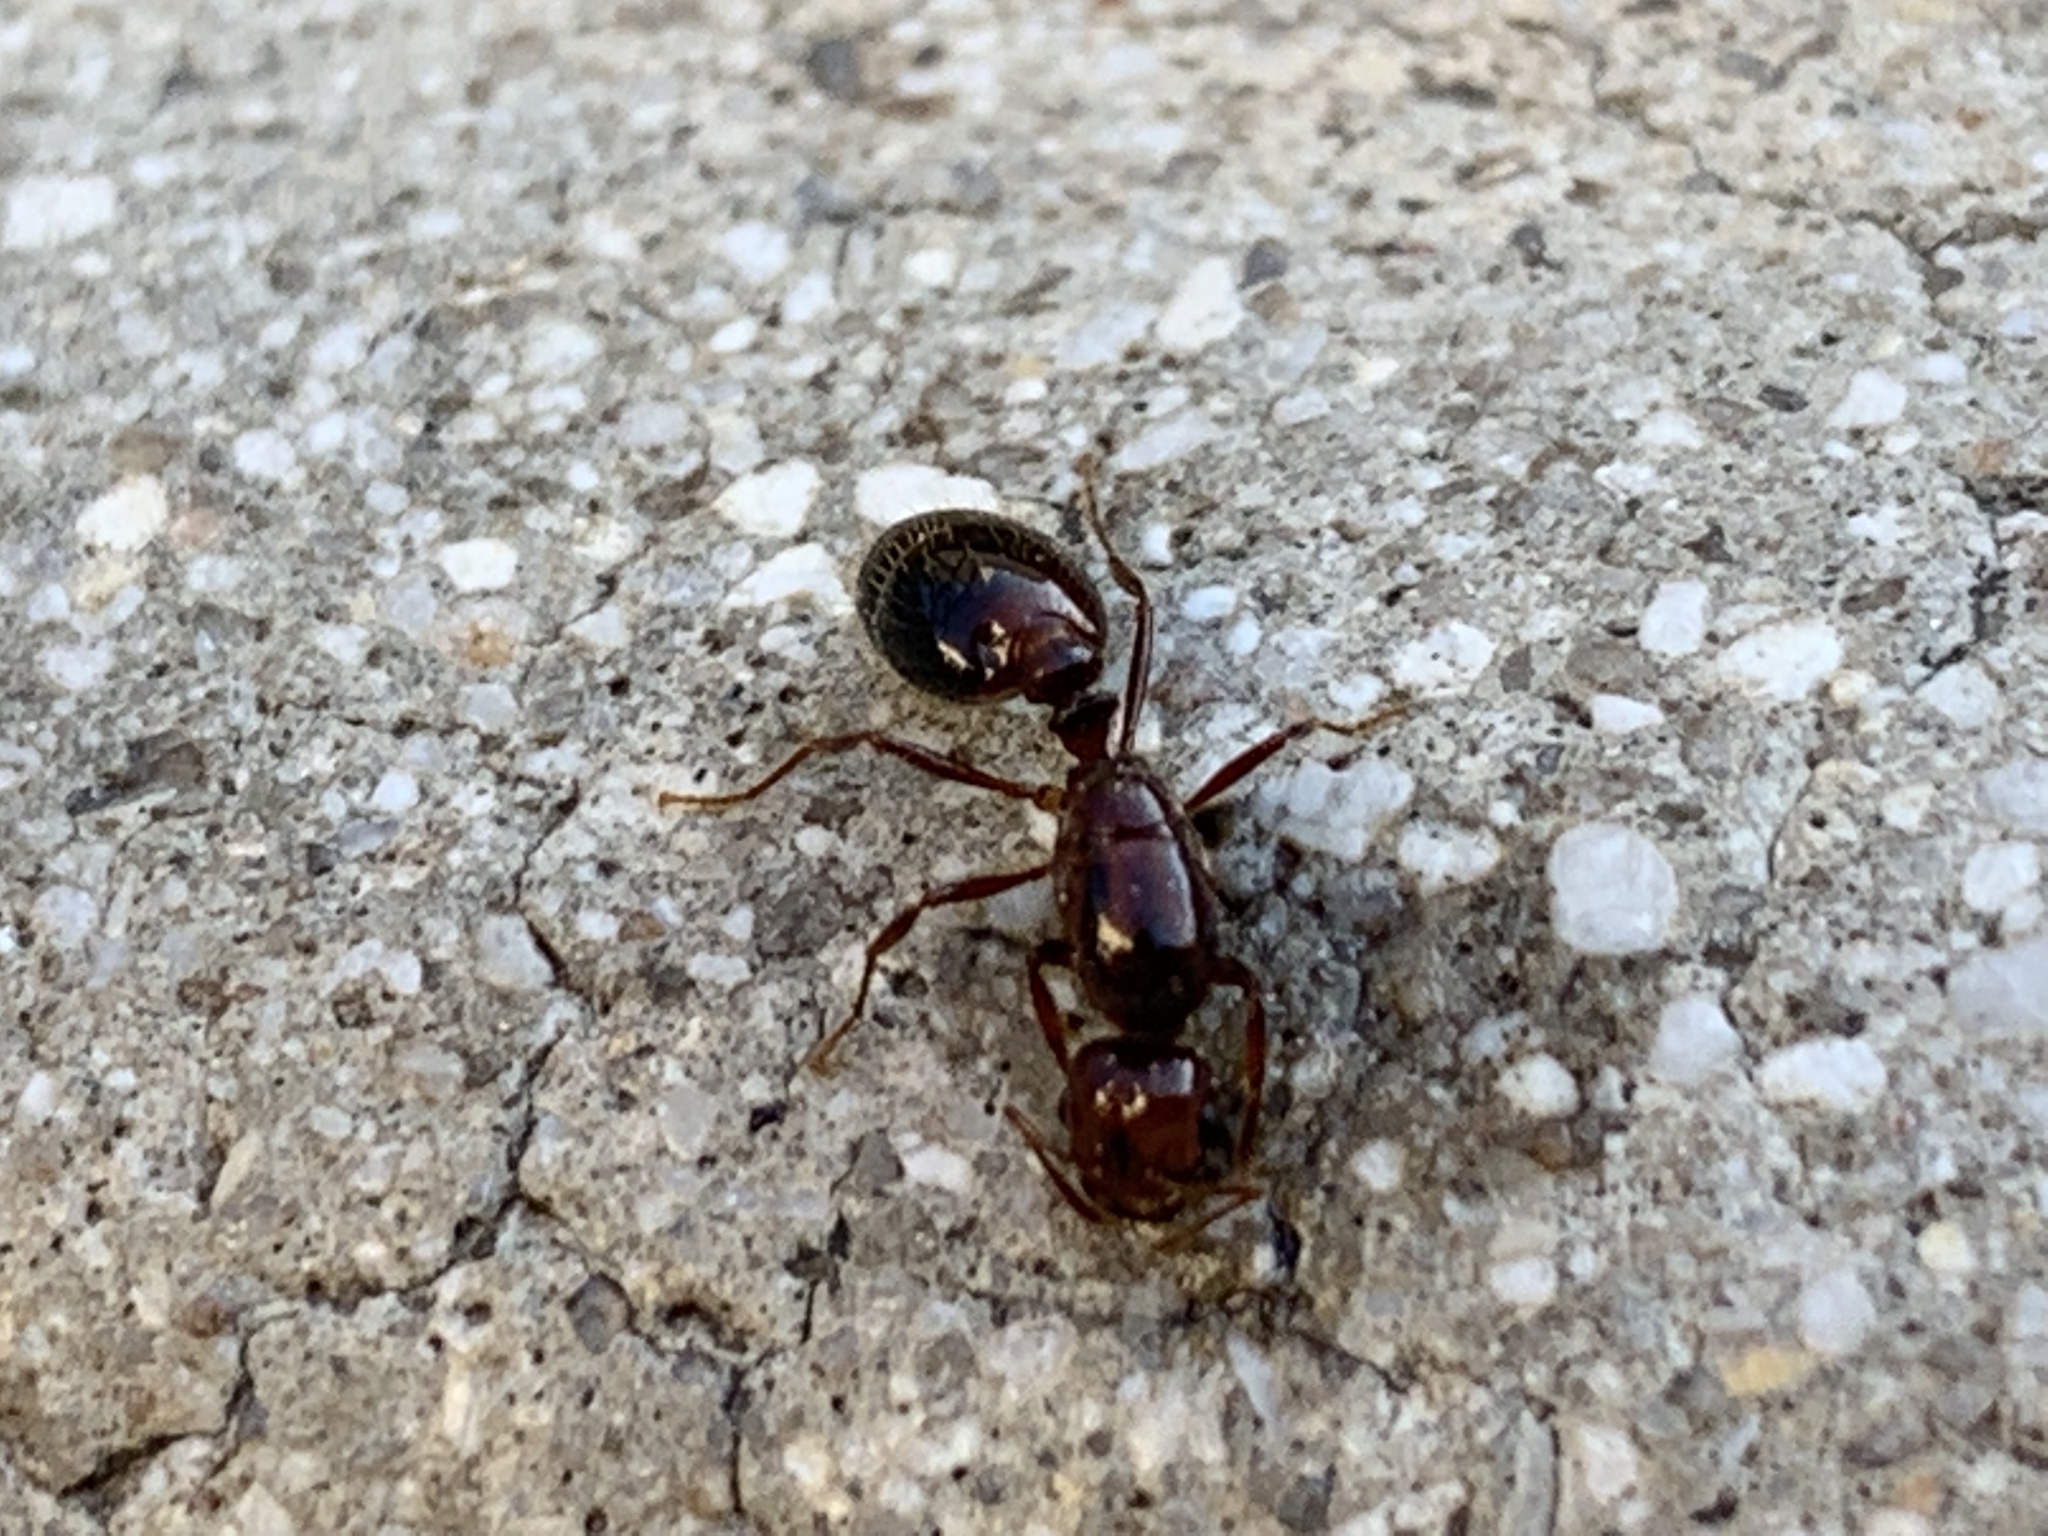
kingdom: Animalia
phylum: Arthropoda
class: Insecta
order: Hymenoptera
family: Formicidae
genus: Solenopsis
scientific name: Solenopsis invicta
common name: Red imported fire ant
